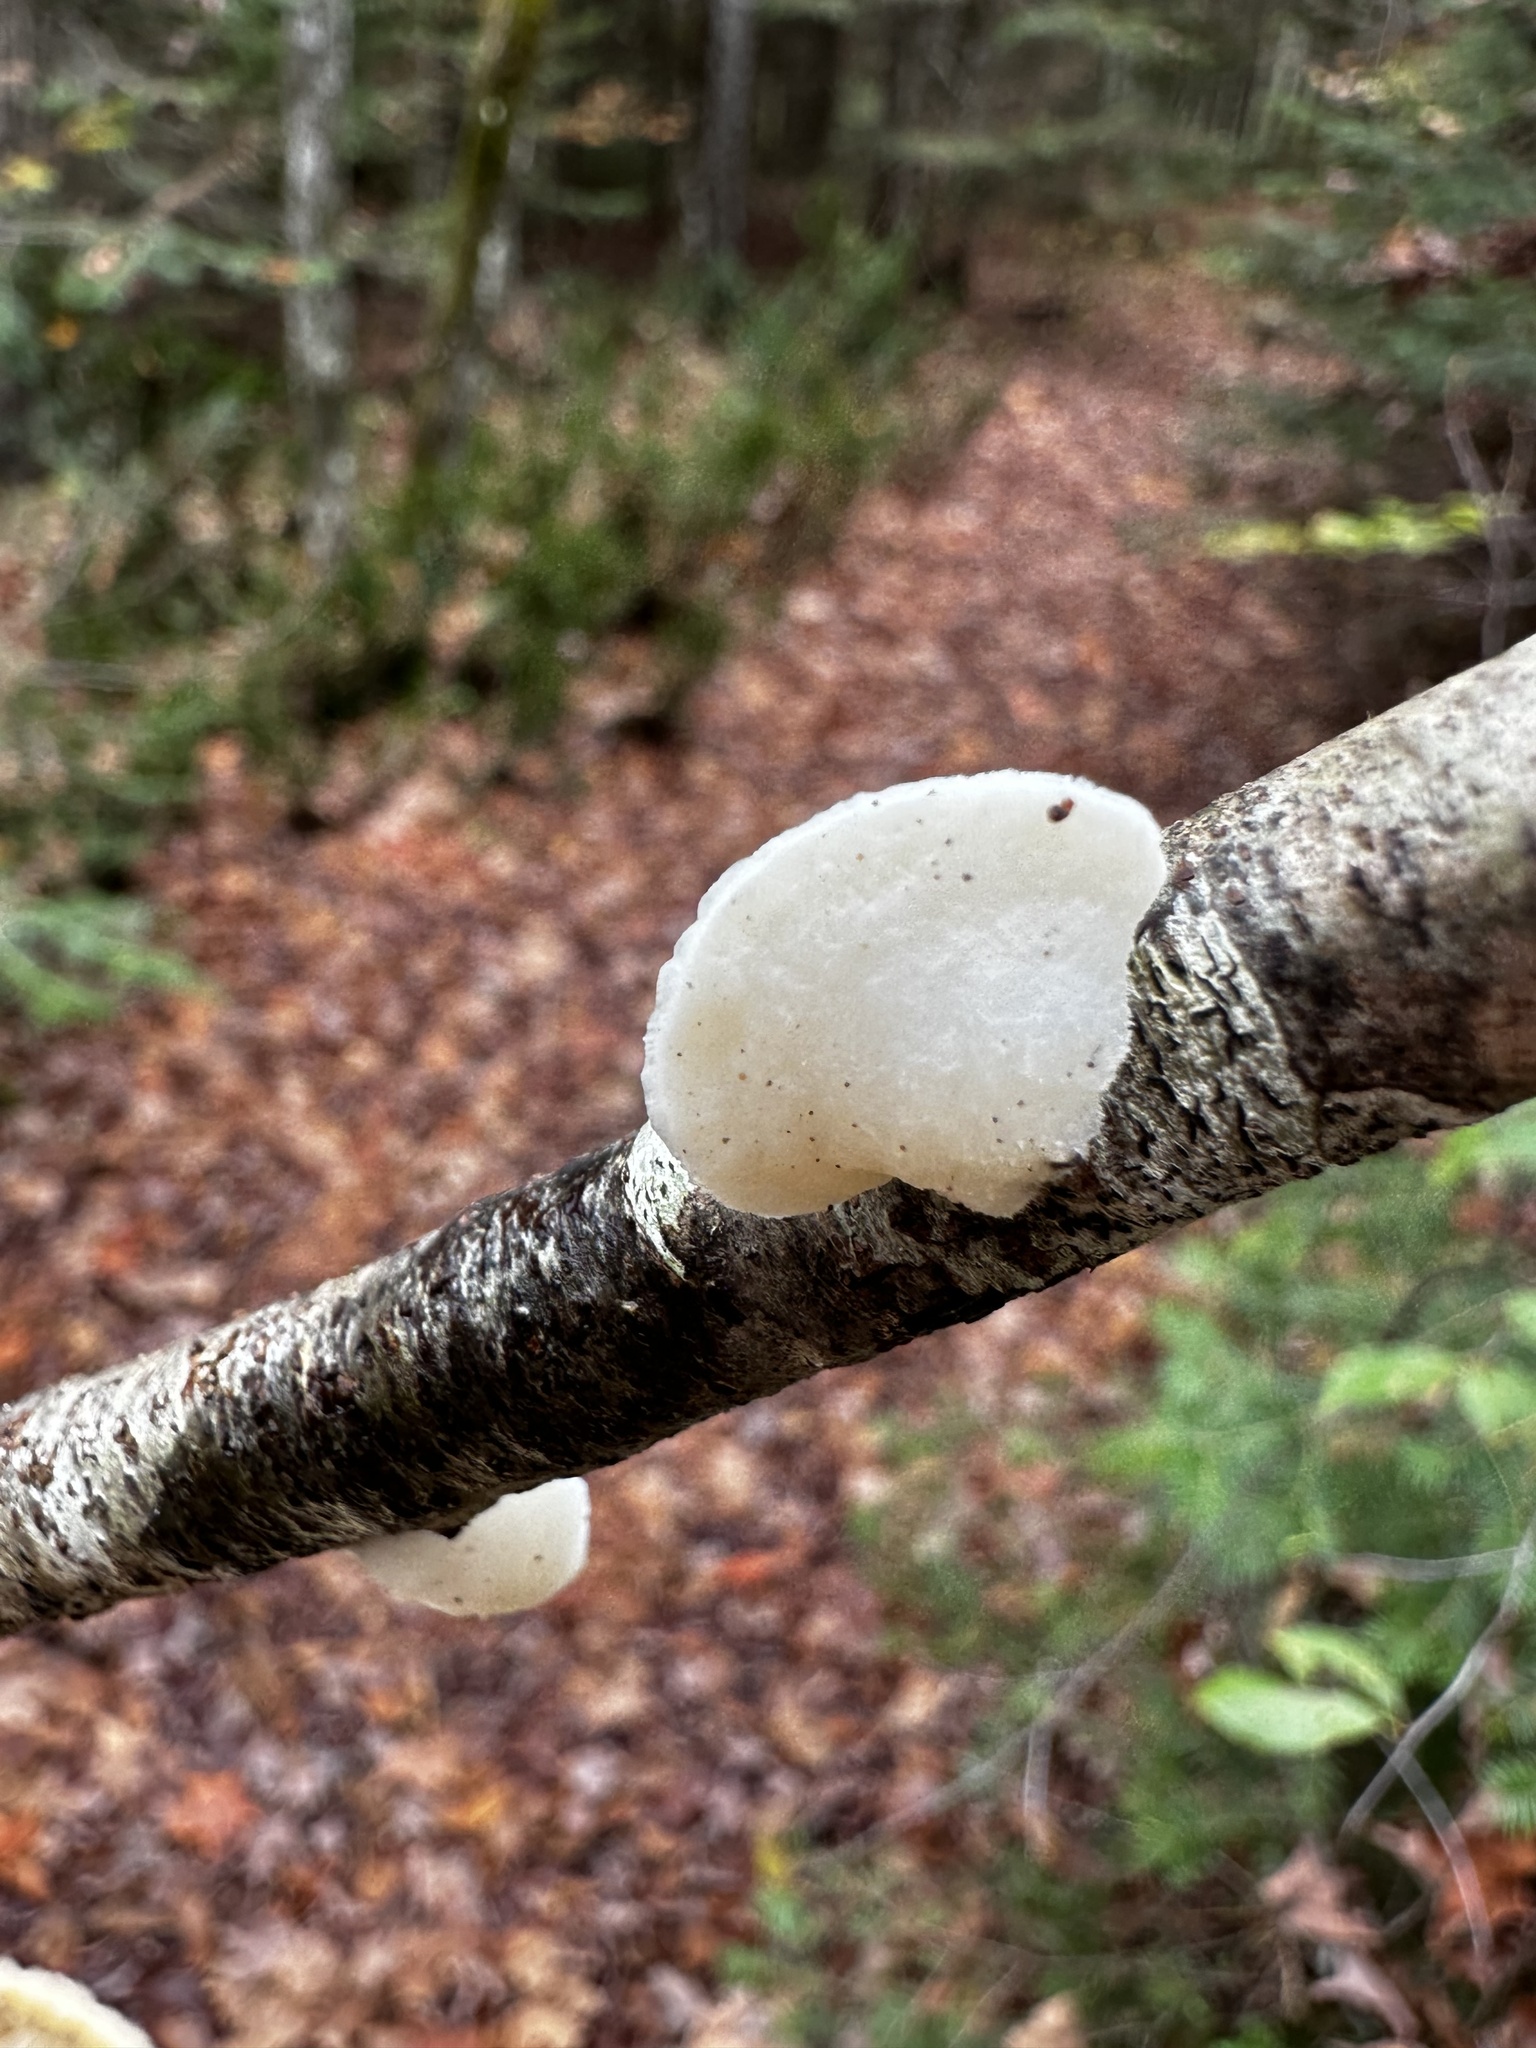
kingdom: Fungi
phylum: Basidiomycota
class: Agaricomycetes
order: Polyporales
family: Incrustoporiaceae
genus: Tyromyces
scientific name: Tyromyces chioneus
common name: White cheese polypore
